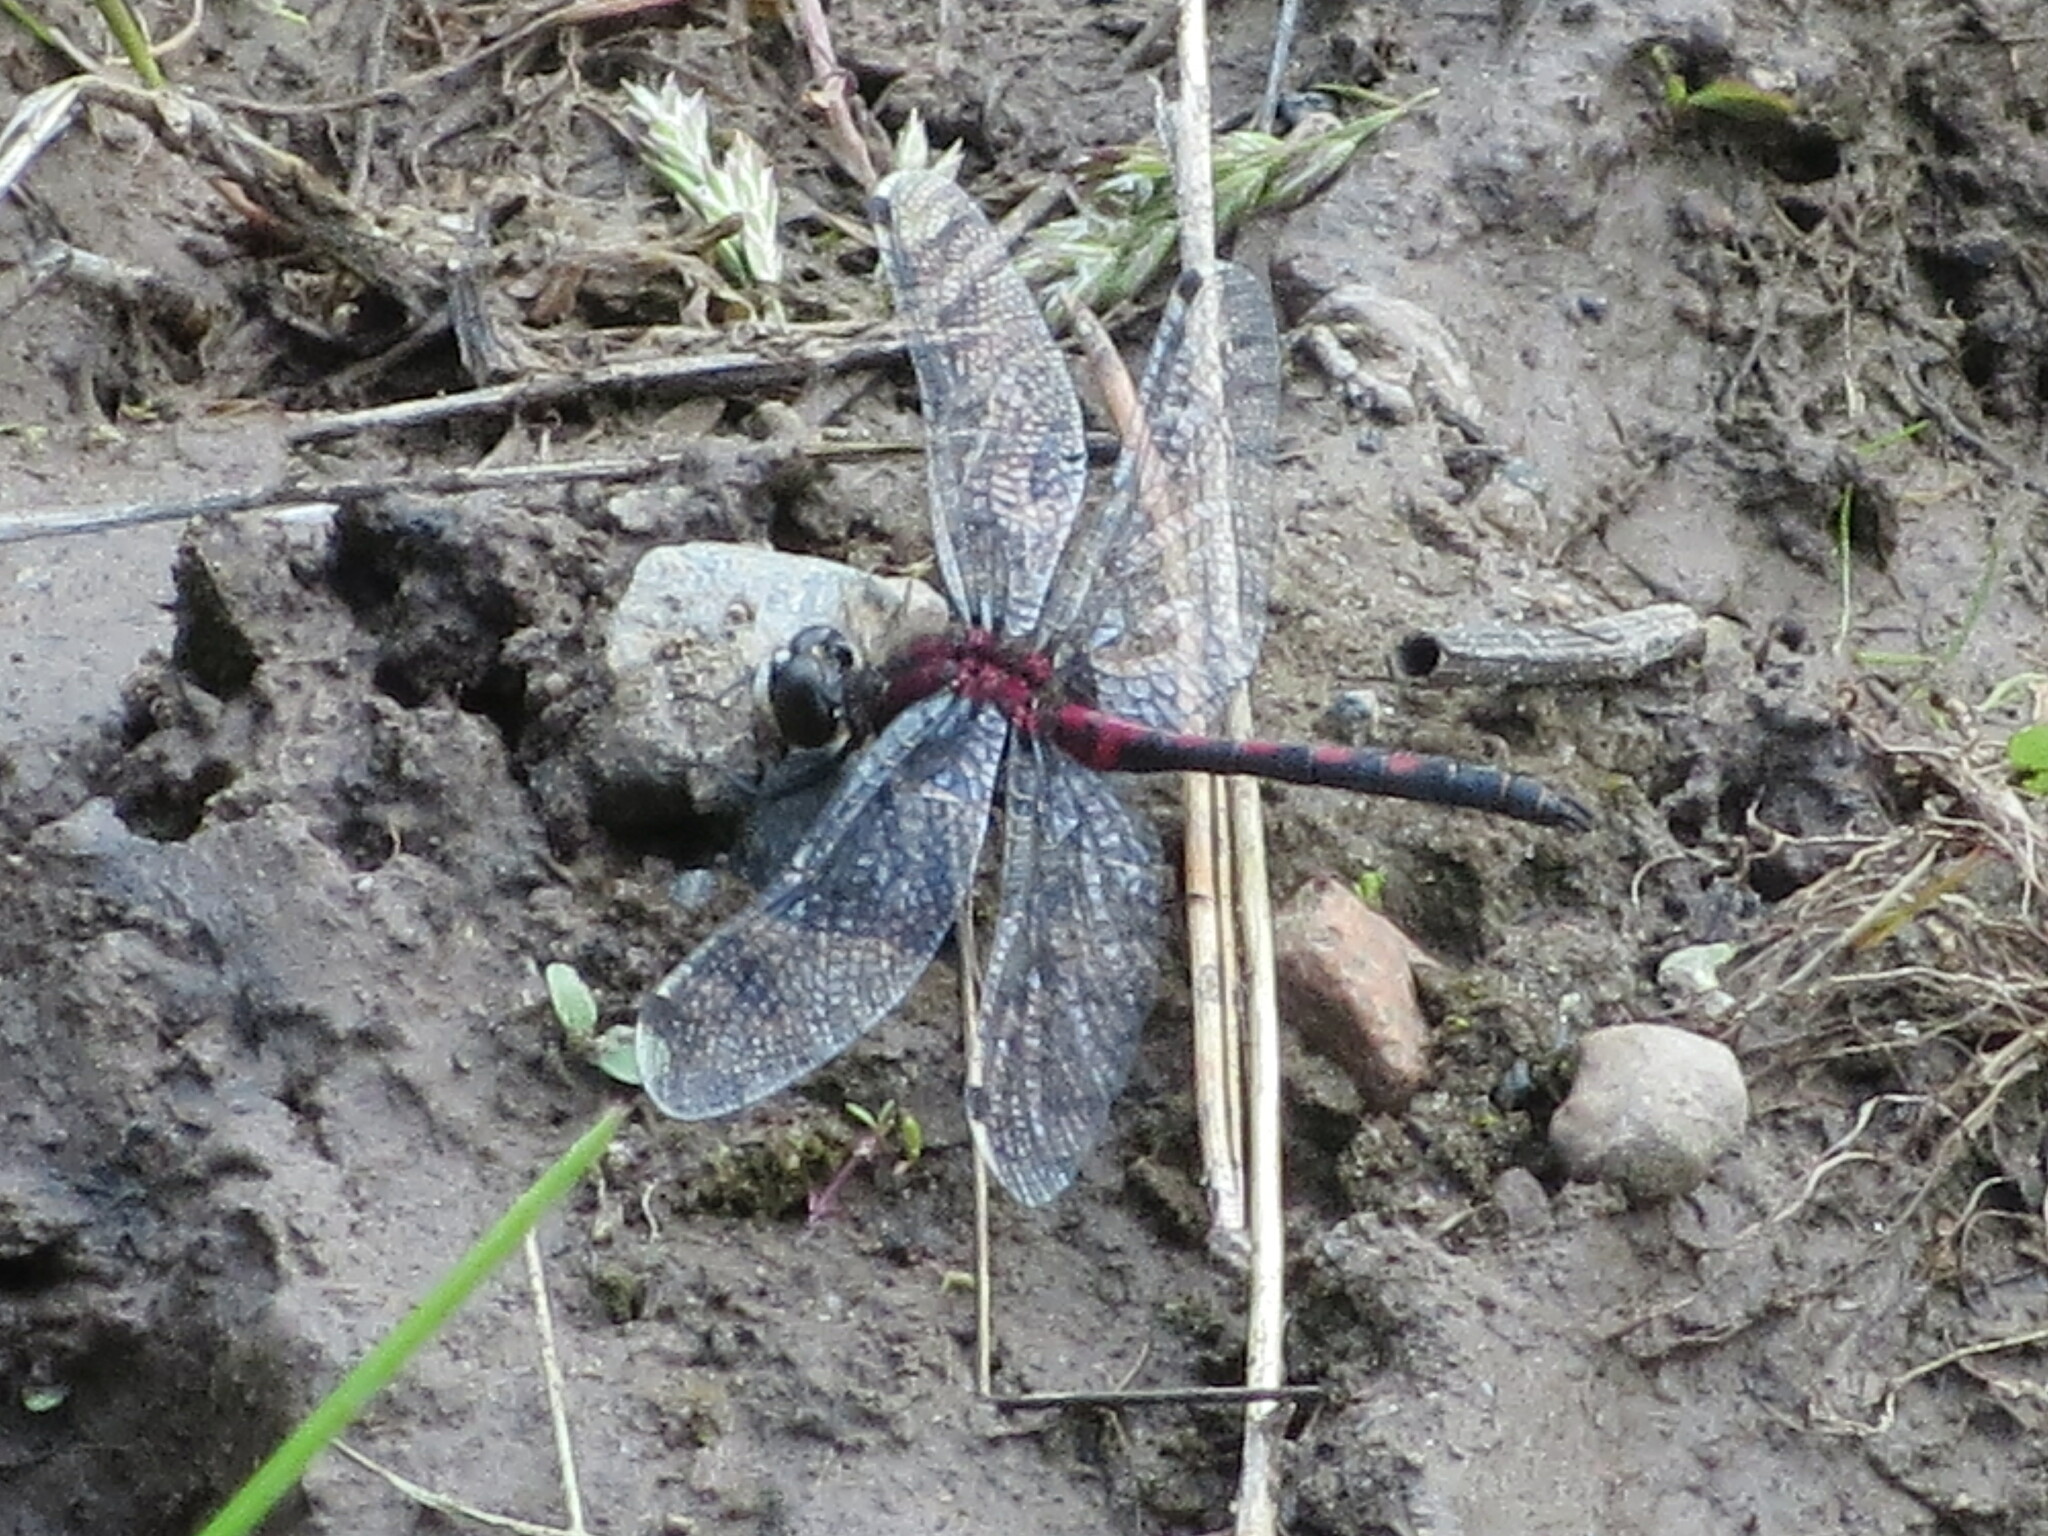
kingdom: Animalia
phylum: Arthropoda
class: Insecta
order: Odonata
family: Libellulidae
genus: Leucorrhinia
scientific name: Leucorrhinia hudsonica
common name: Hudsonian whiteface
